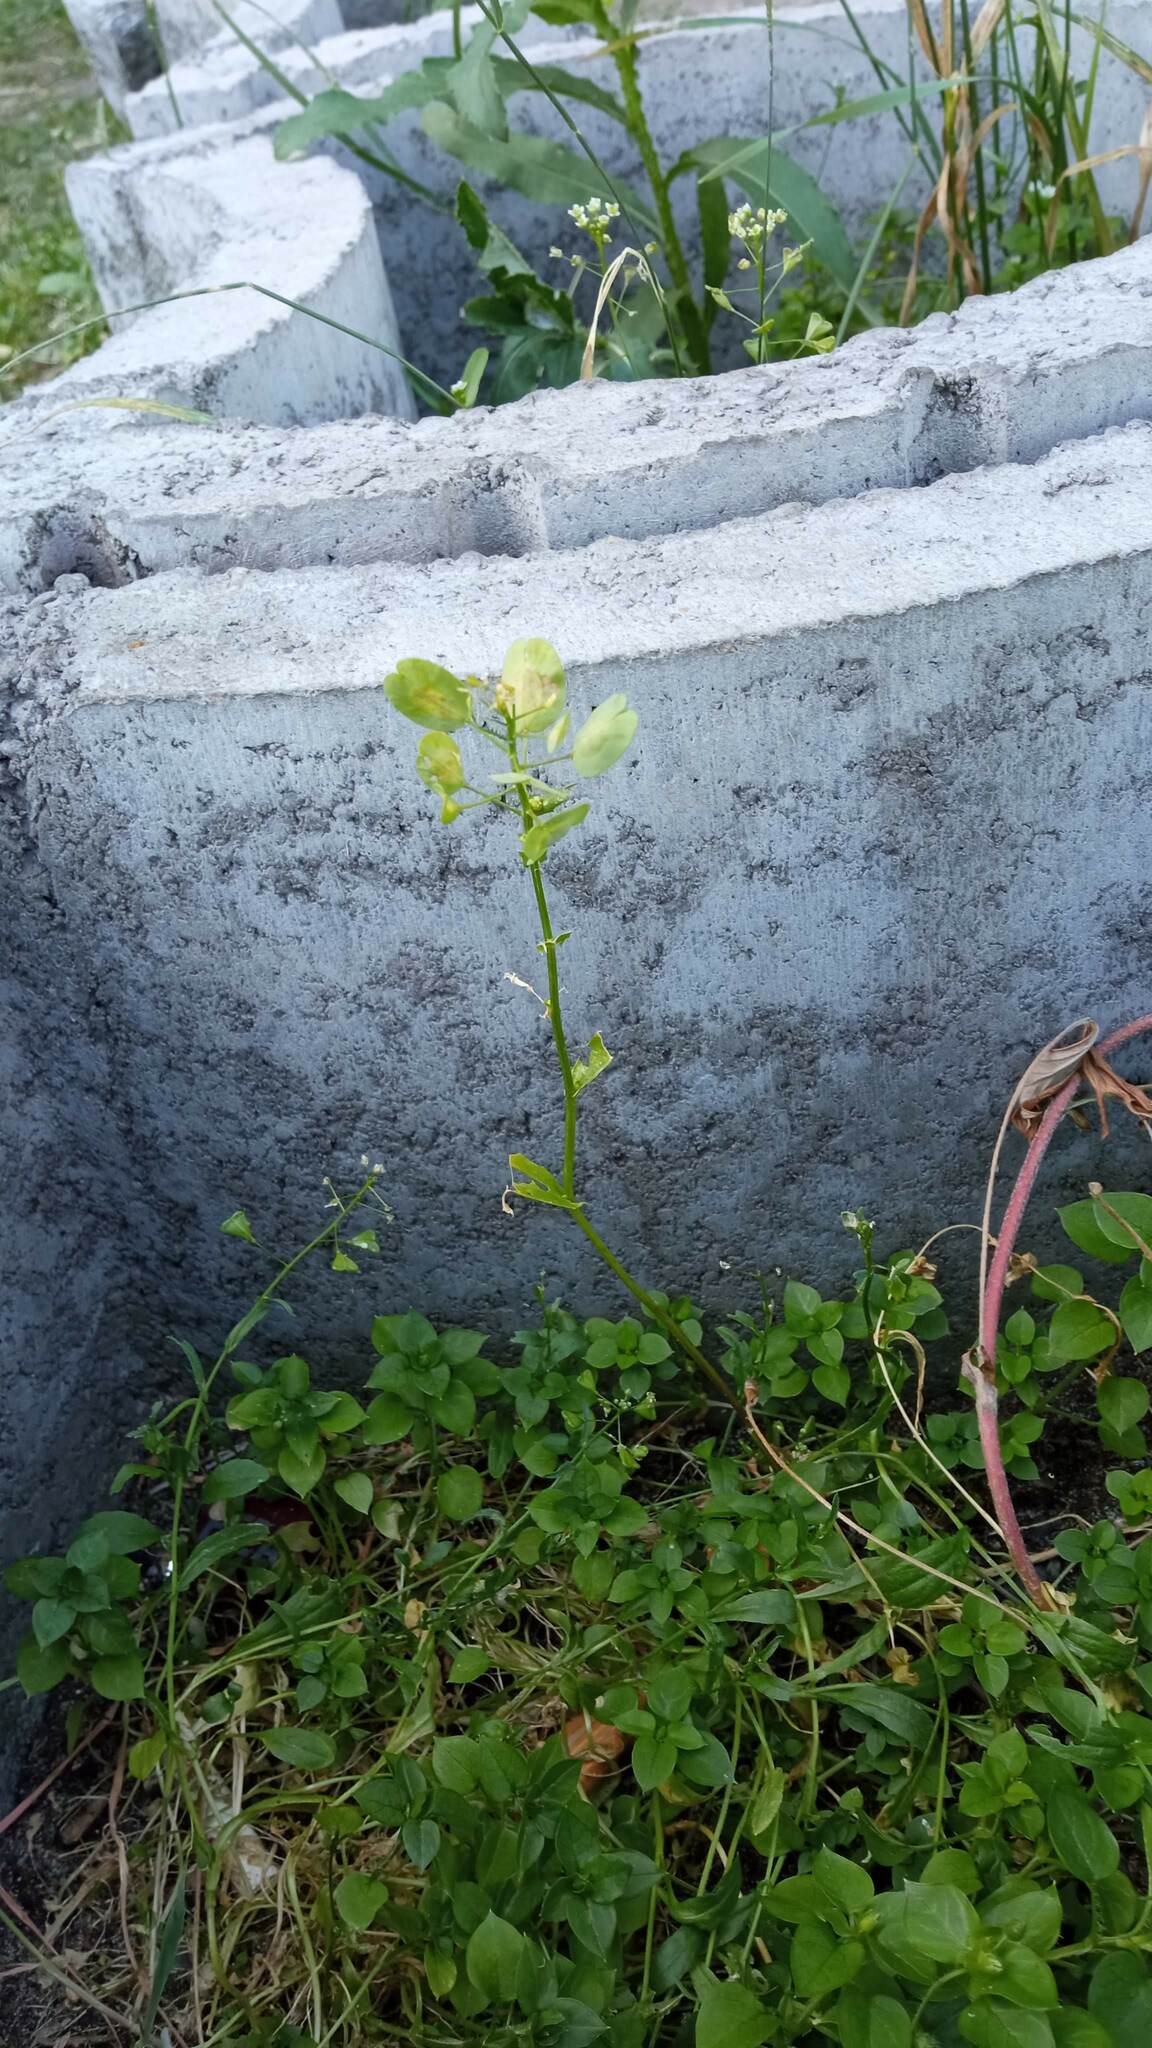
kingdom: Plantae
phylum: Tracheophyta
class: Magnoliopsida
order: Brassicales
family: Brassicaceae
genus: Thlaspi
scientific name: Thlaspi arvense
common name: Field pennycress
